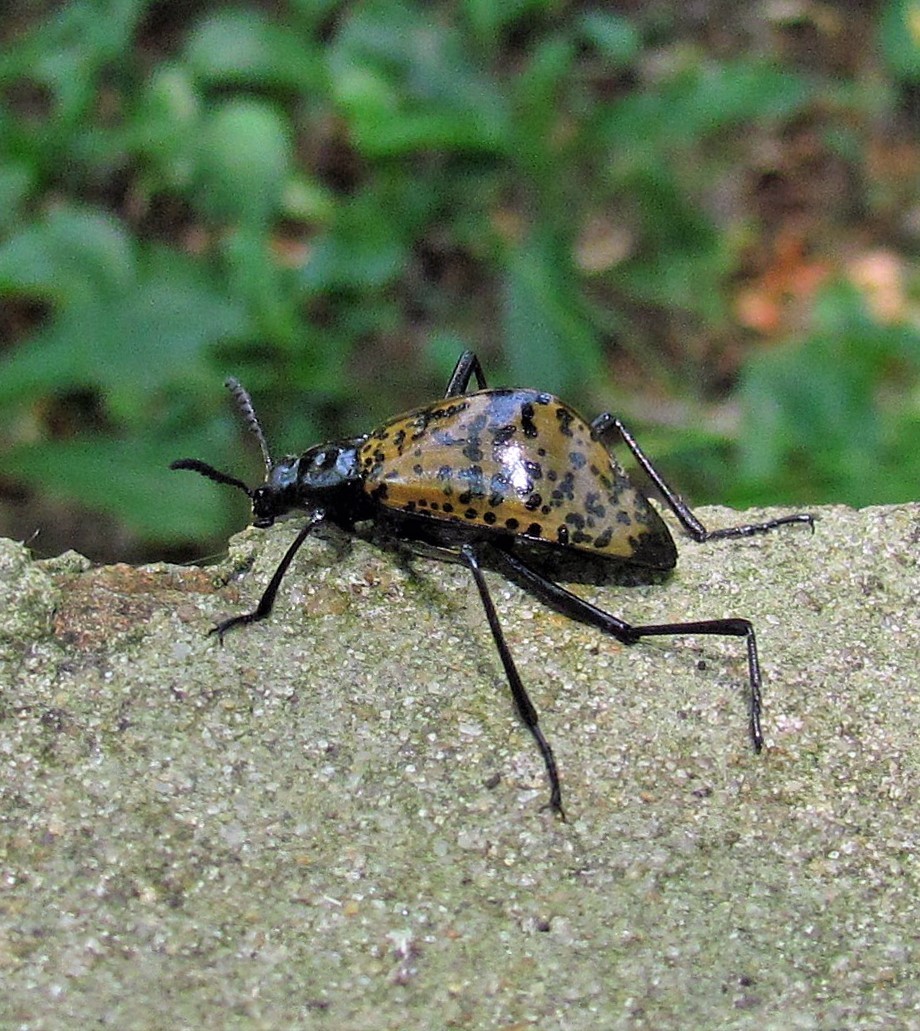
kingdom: Animalia
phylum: Arthropoda
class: Insecta
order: Coleoptera
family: Tenebrionidae
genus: Cuphotes
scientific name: Cuphotes
